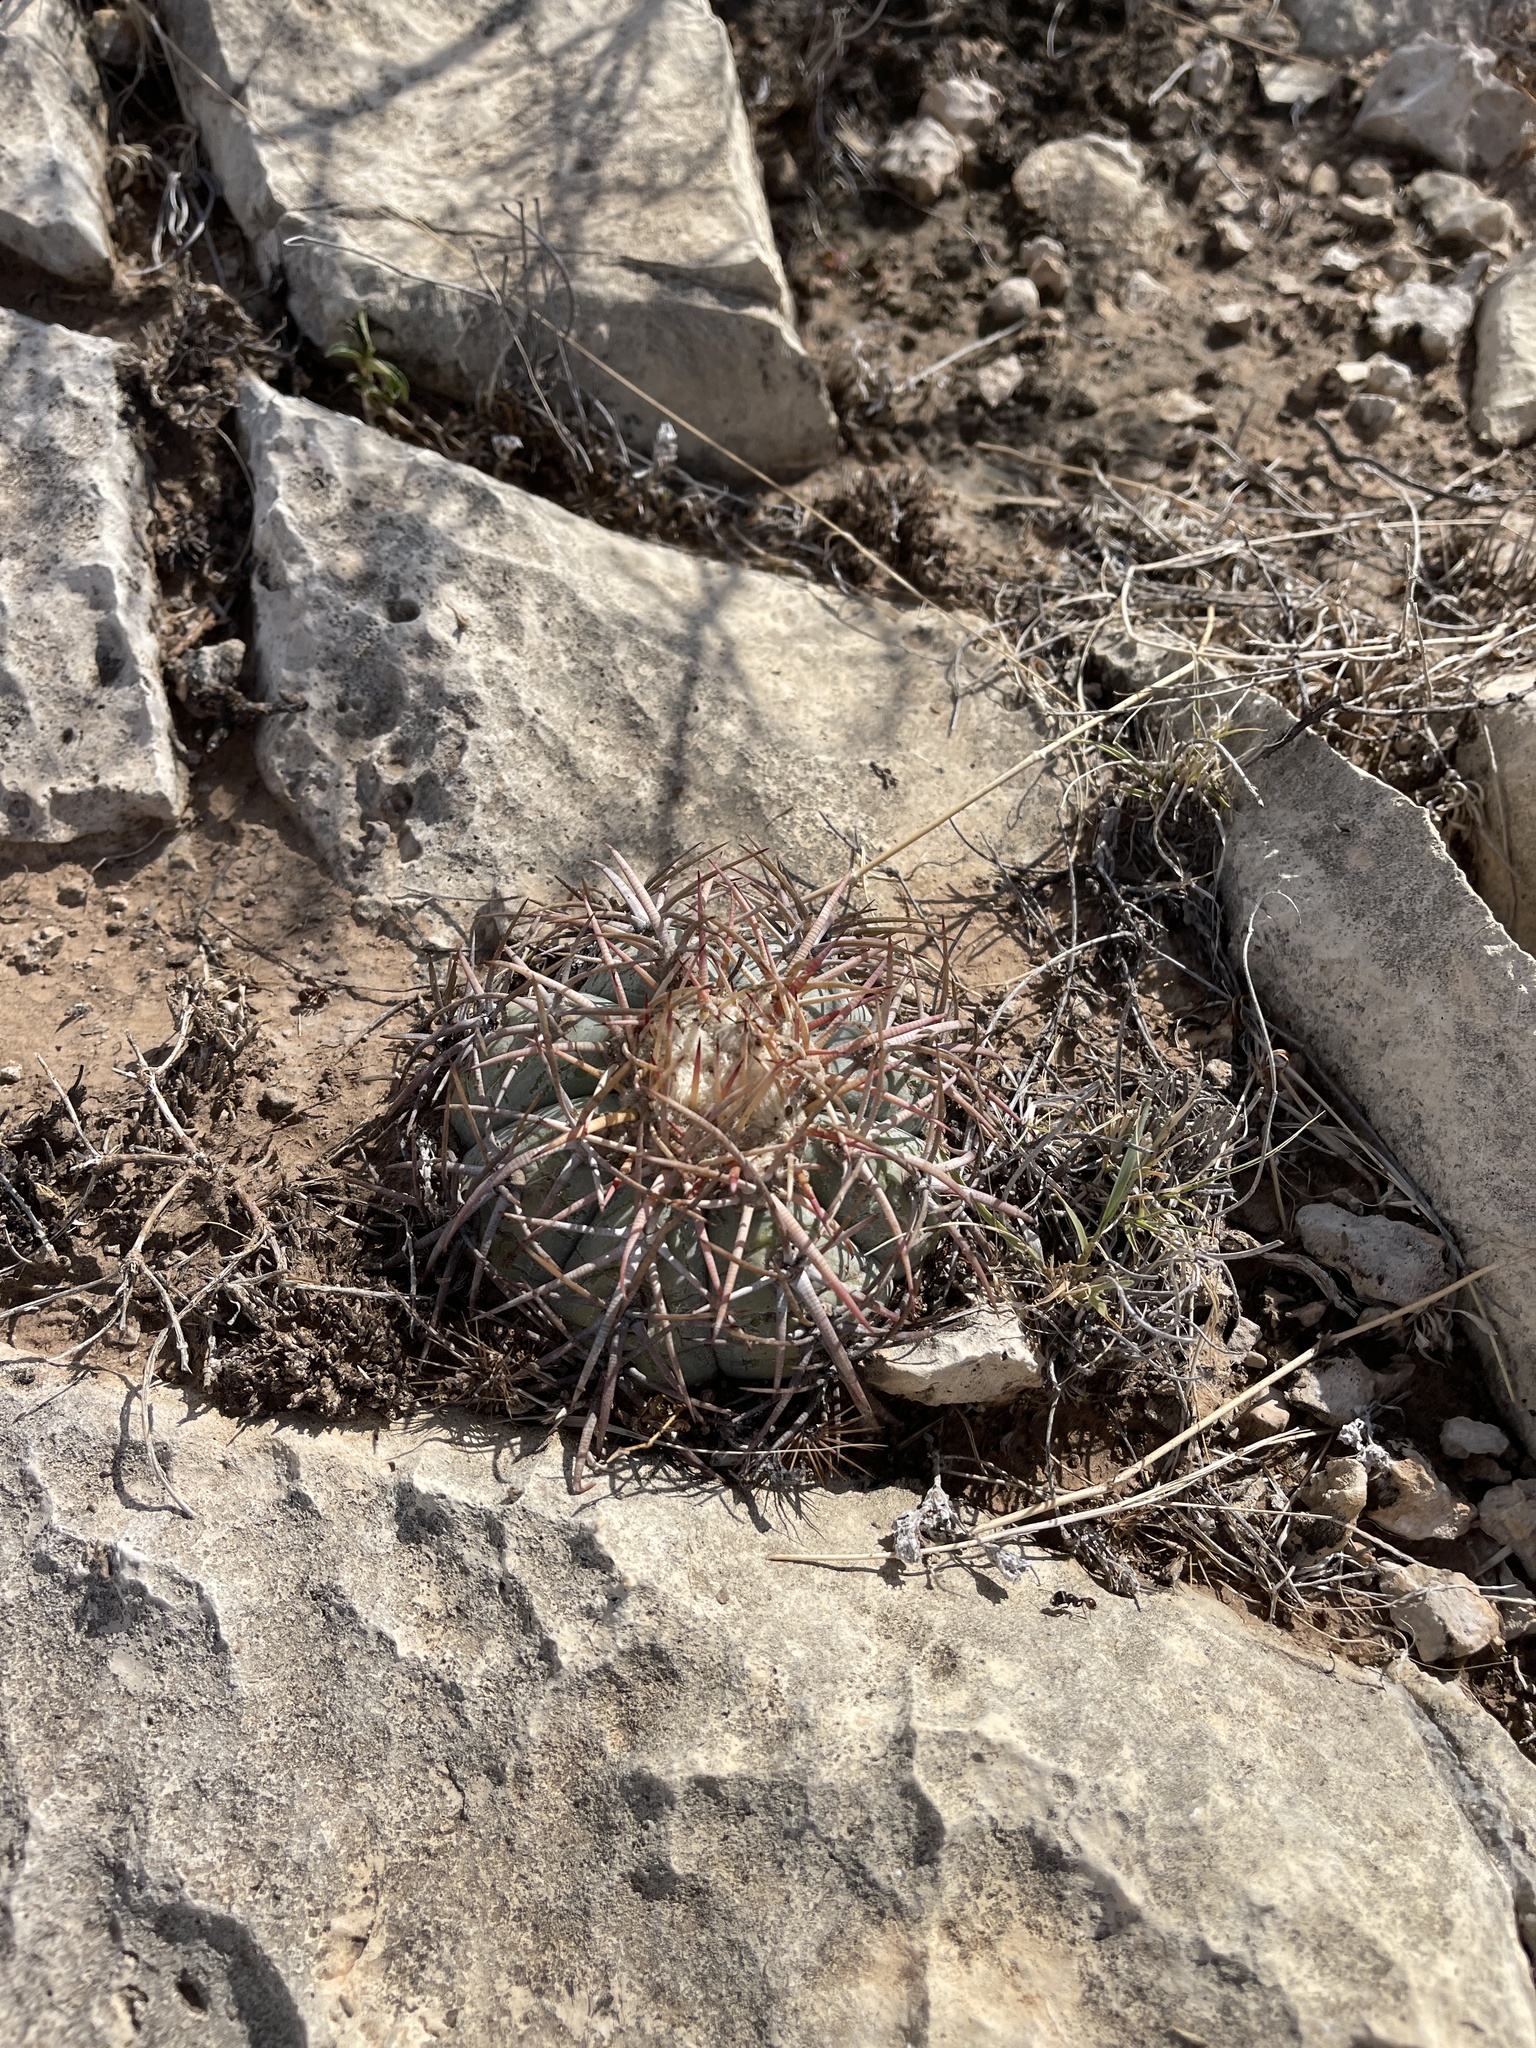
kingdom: Plantae
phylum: Tracheophyta
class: Magnoliopsida
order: Caryophyllales
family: Cactaceae
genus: Echinocactus
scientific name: Echinocactus horizonthalonius
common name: Devilshead
